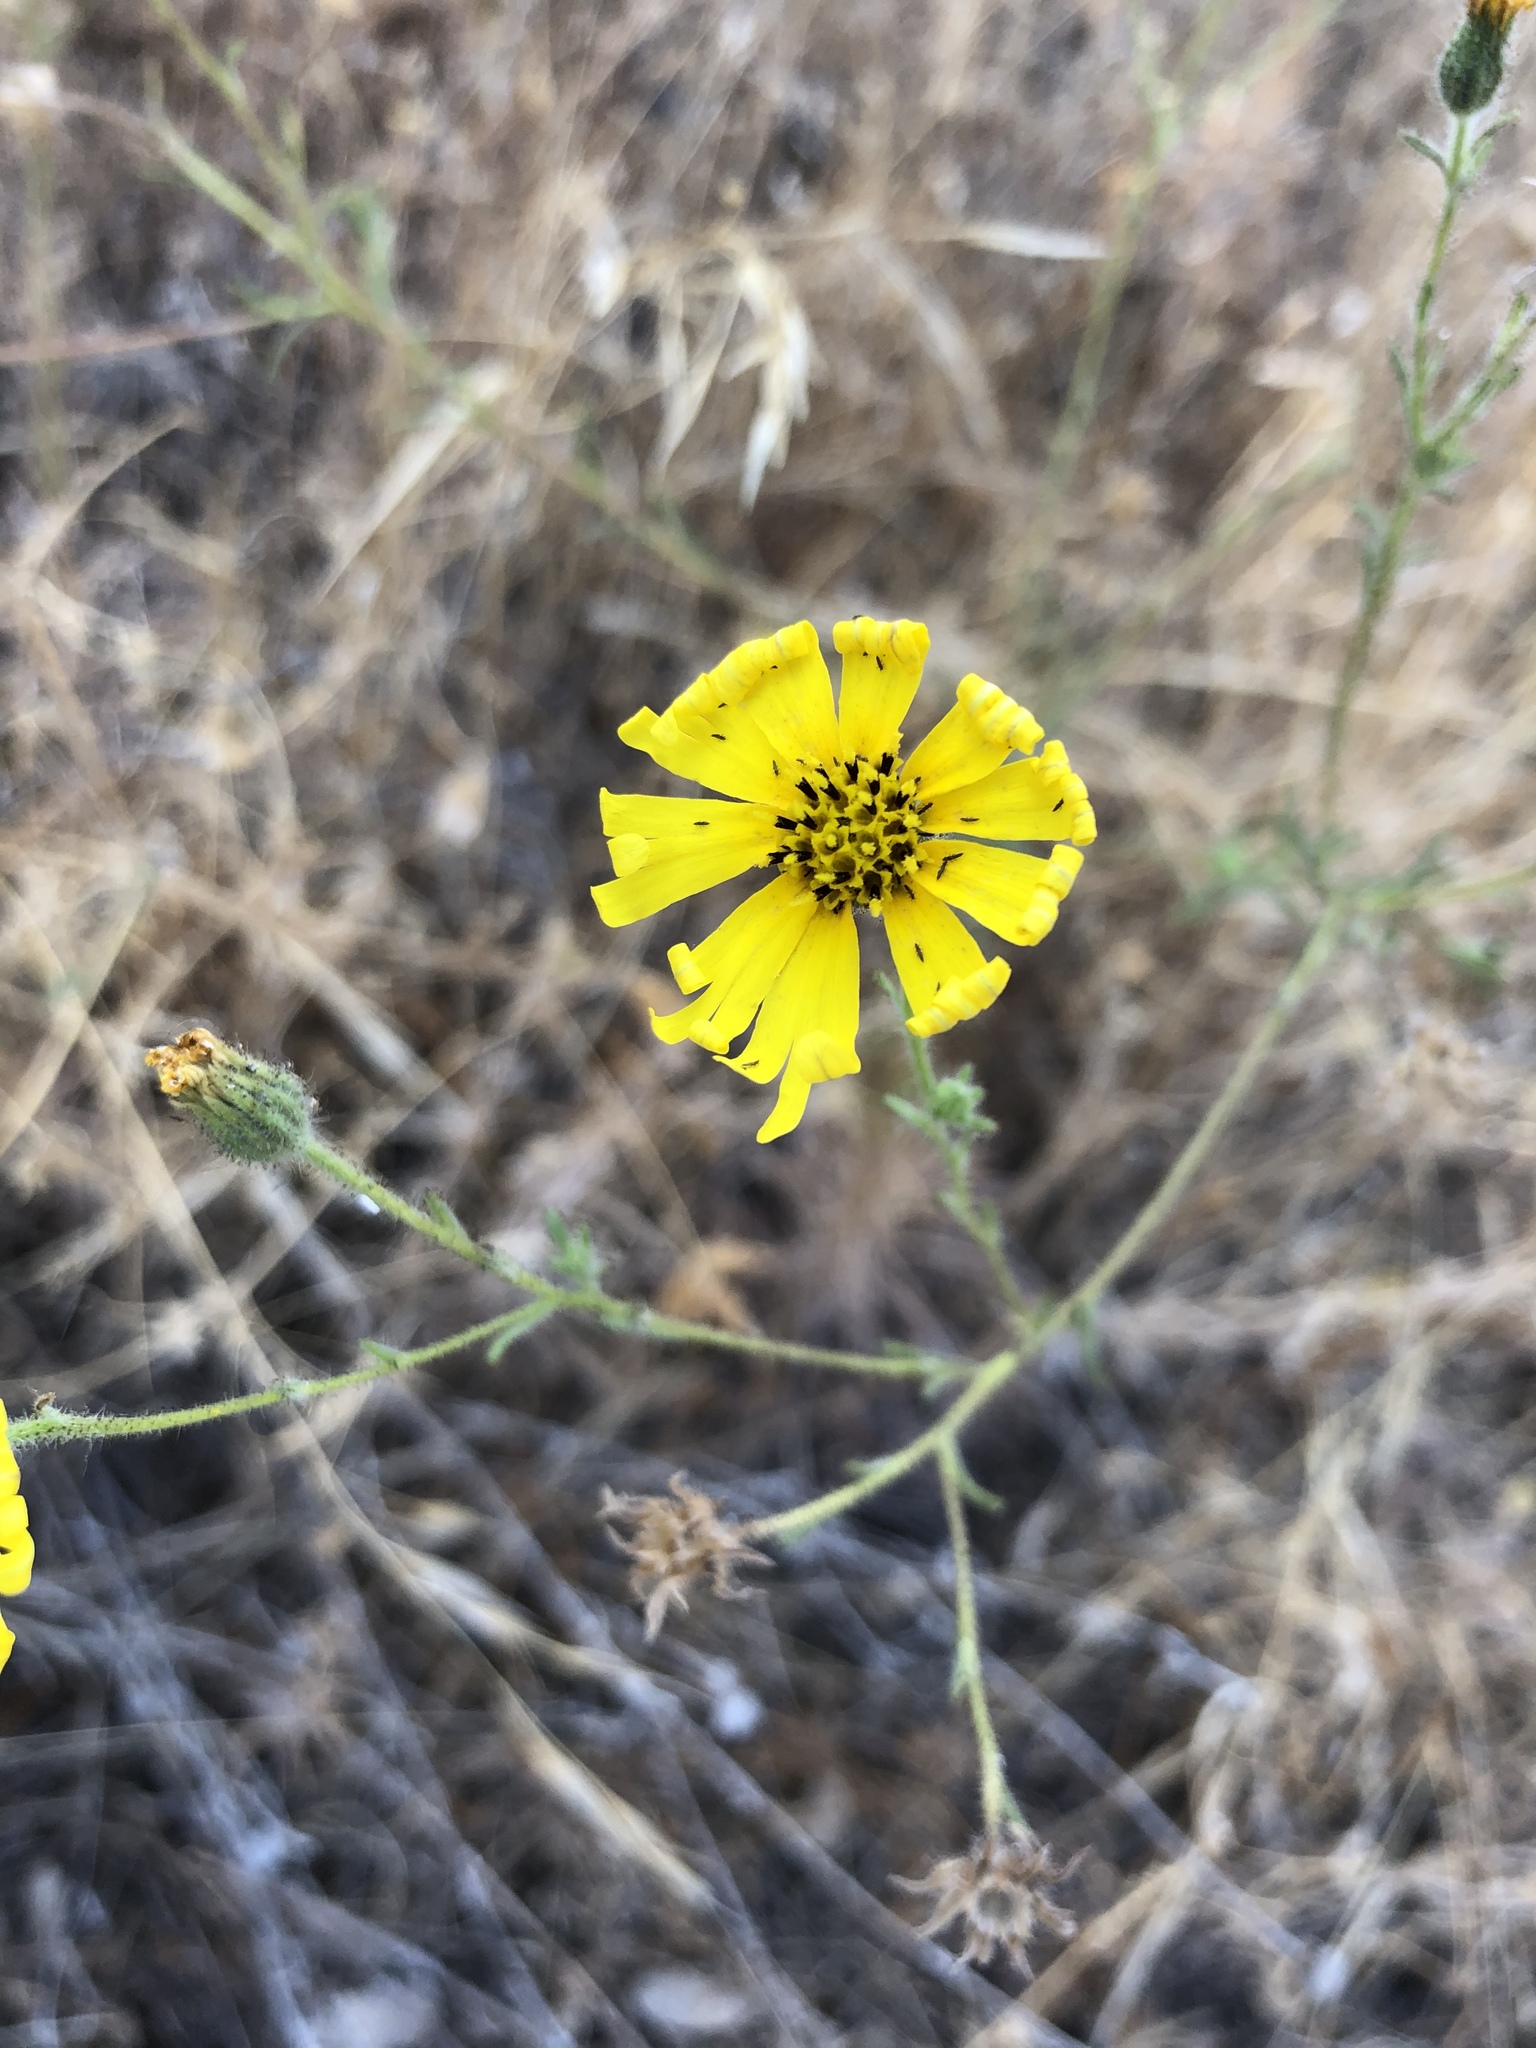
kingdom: Plantae
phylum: Tracheophyta
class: Magnoliopsida
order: Asterales
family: Asteraceae
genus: Madia
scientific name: Madia elegans
